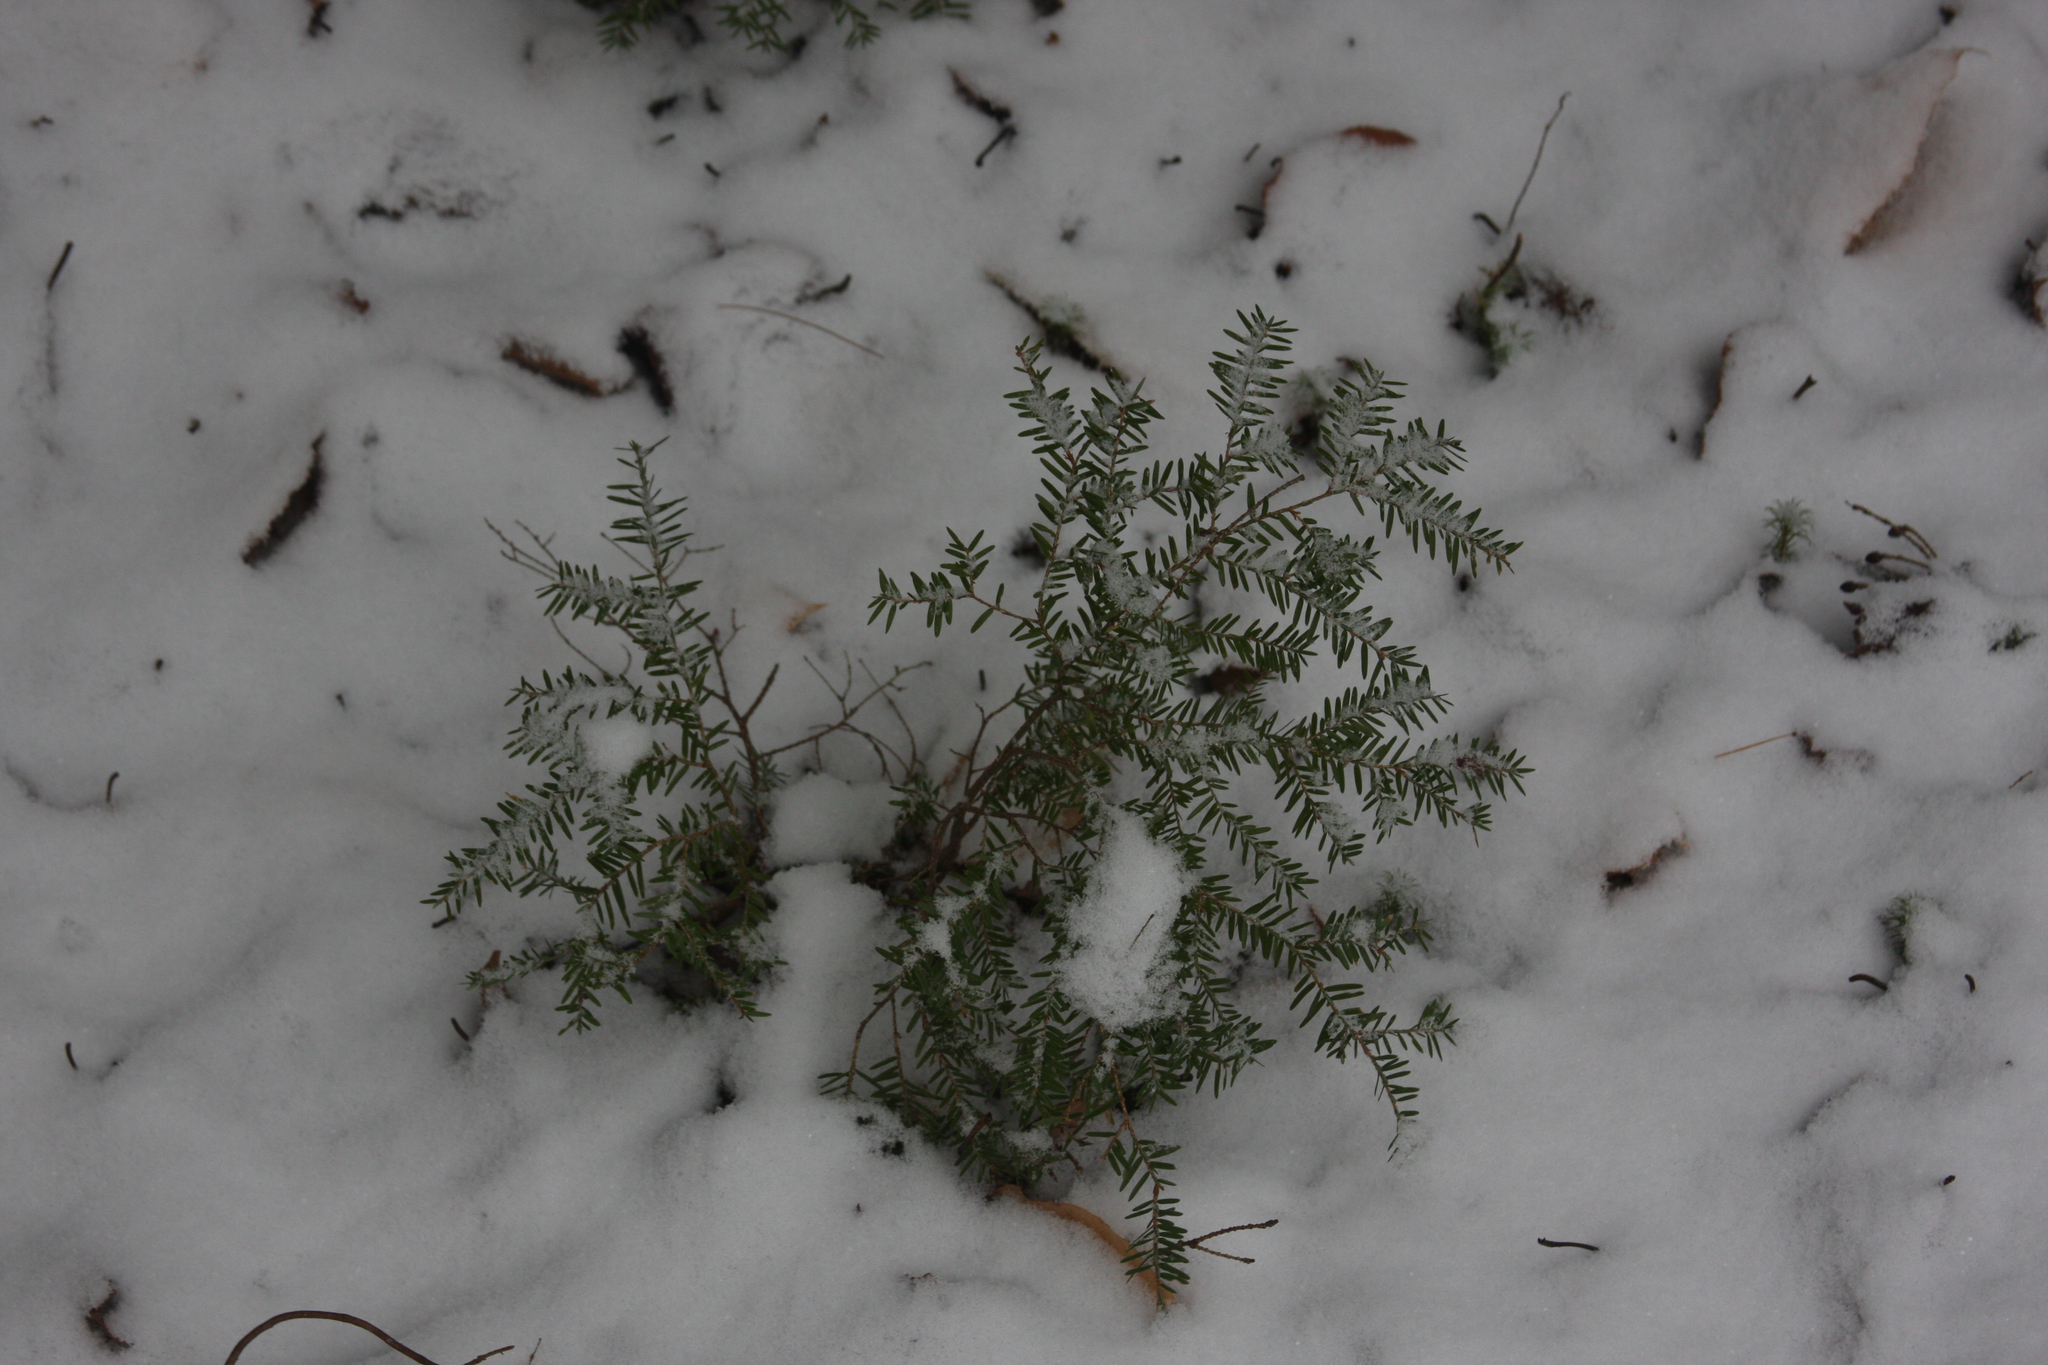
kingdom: Plantae
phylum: Tracheophyta
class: Pinopsida
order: Pinales
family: Pinaceae
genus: Tsuga
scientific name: Tsuga canadensis
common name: Eastern hemlock
